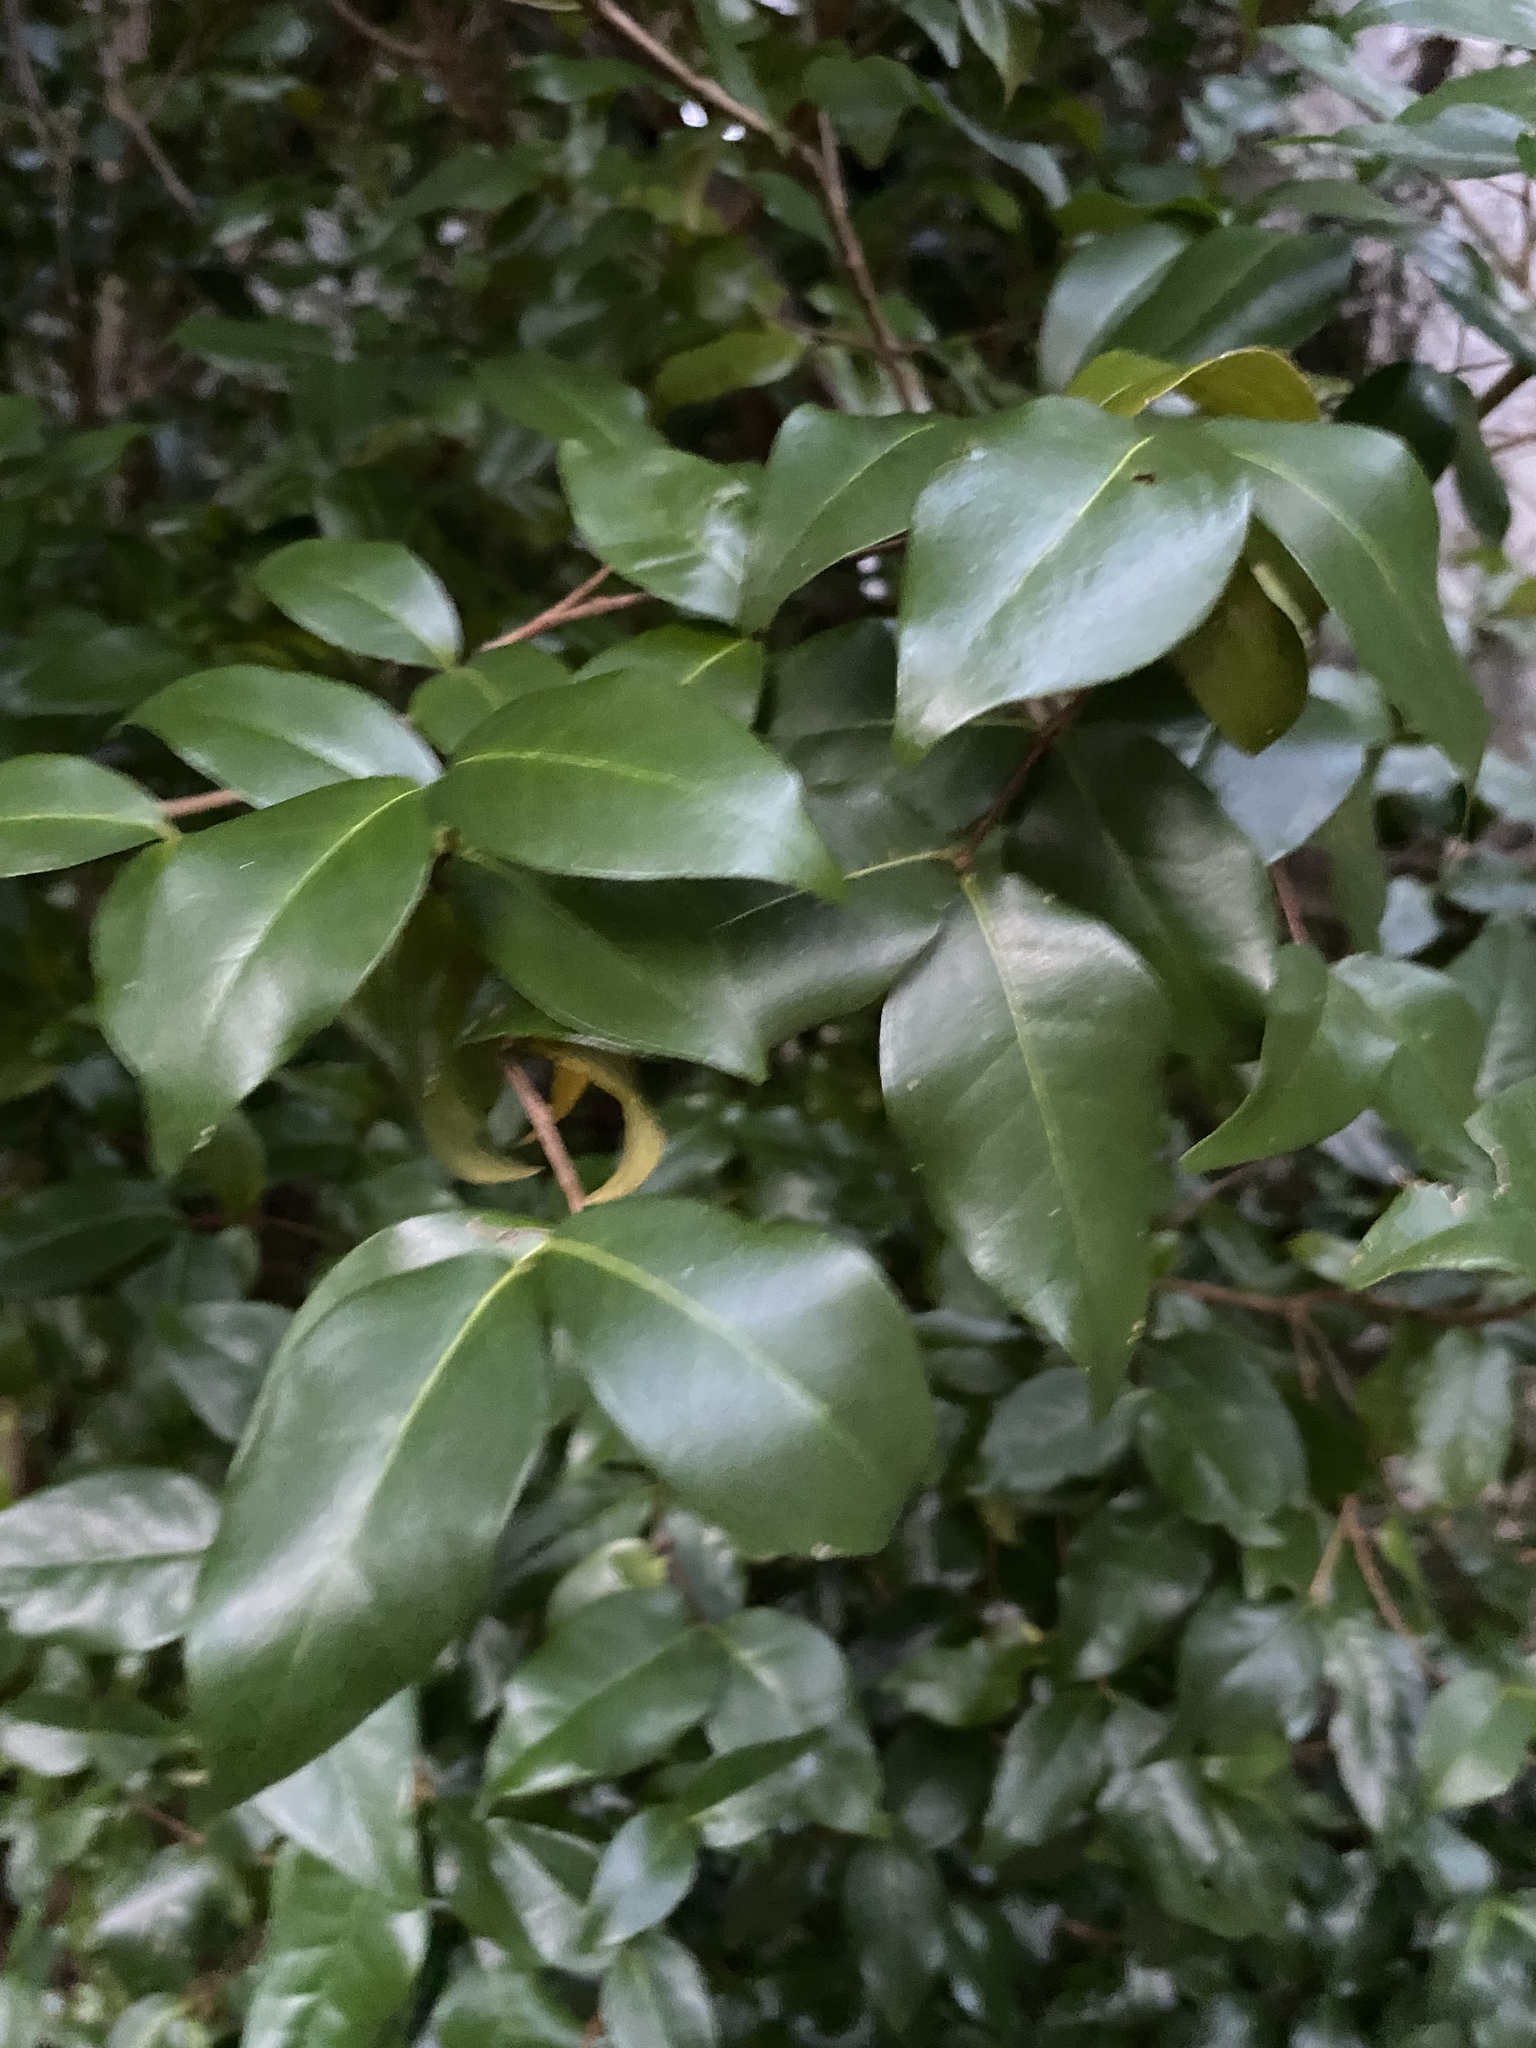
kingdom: Plantae
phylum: Tracheophyta
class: Magnoliopsida
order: Myrtales
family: Myrtaceae
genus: Eugenia
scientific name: Eugenia uniflora
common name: Surinam cherry
